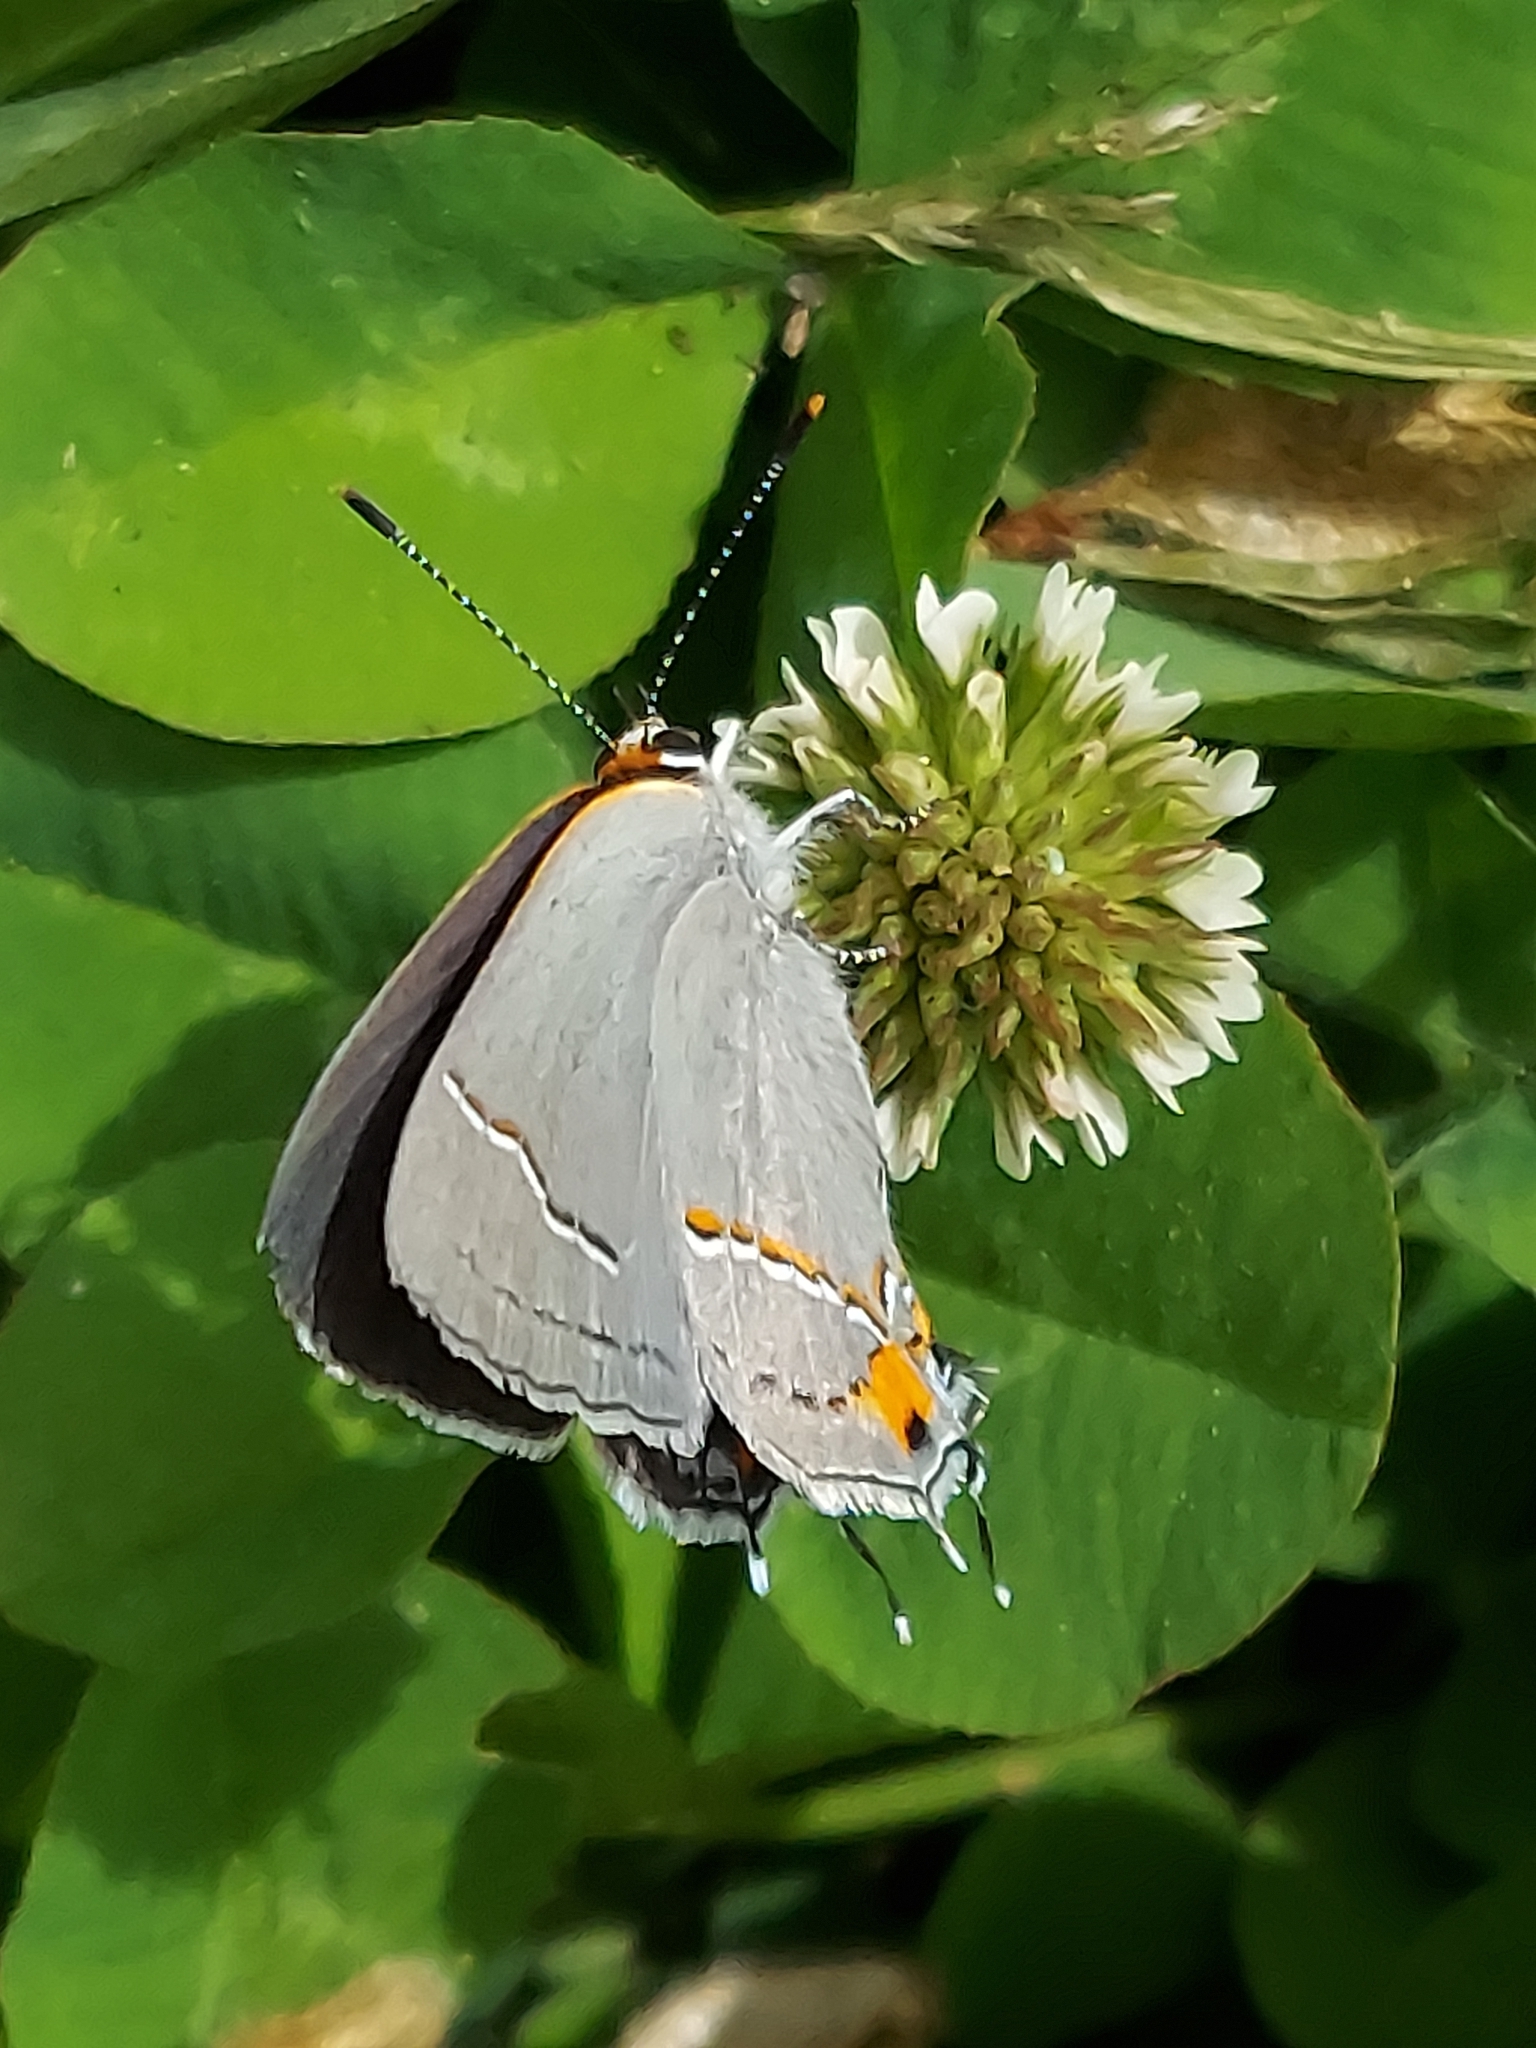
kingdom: Animalia
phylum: Arthropoda
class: Insecta
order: Lepidoptera
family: Lycaenidae
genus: Strymon
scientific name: Strymon melinus
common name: Gray hairstreak
